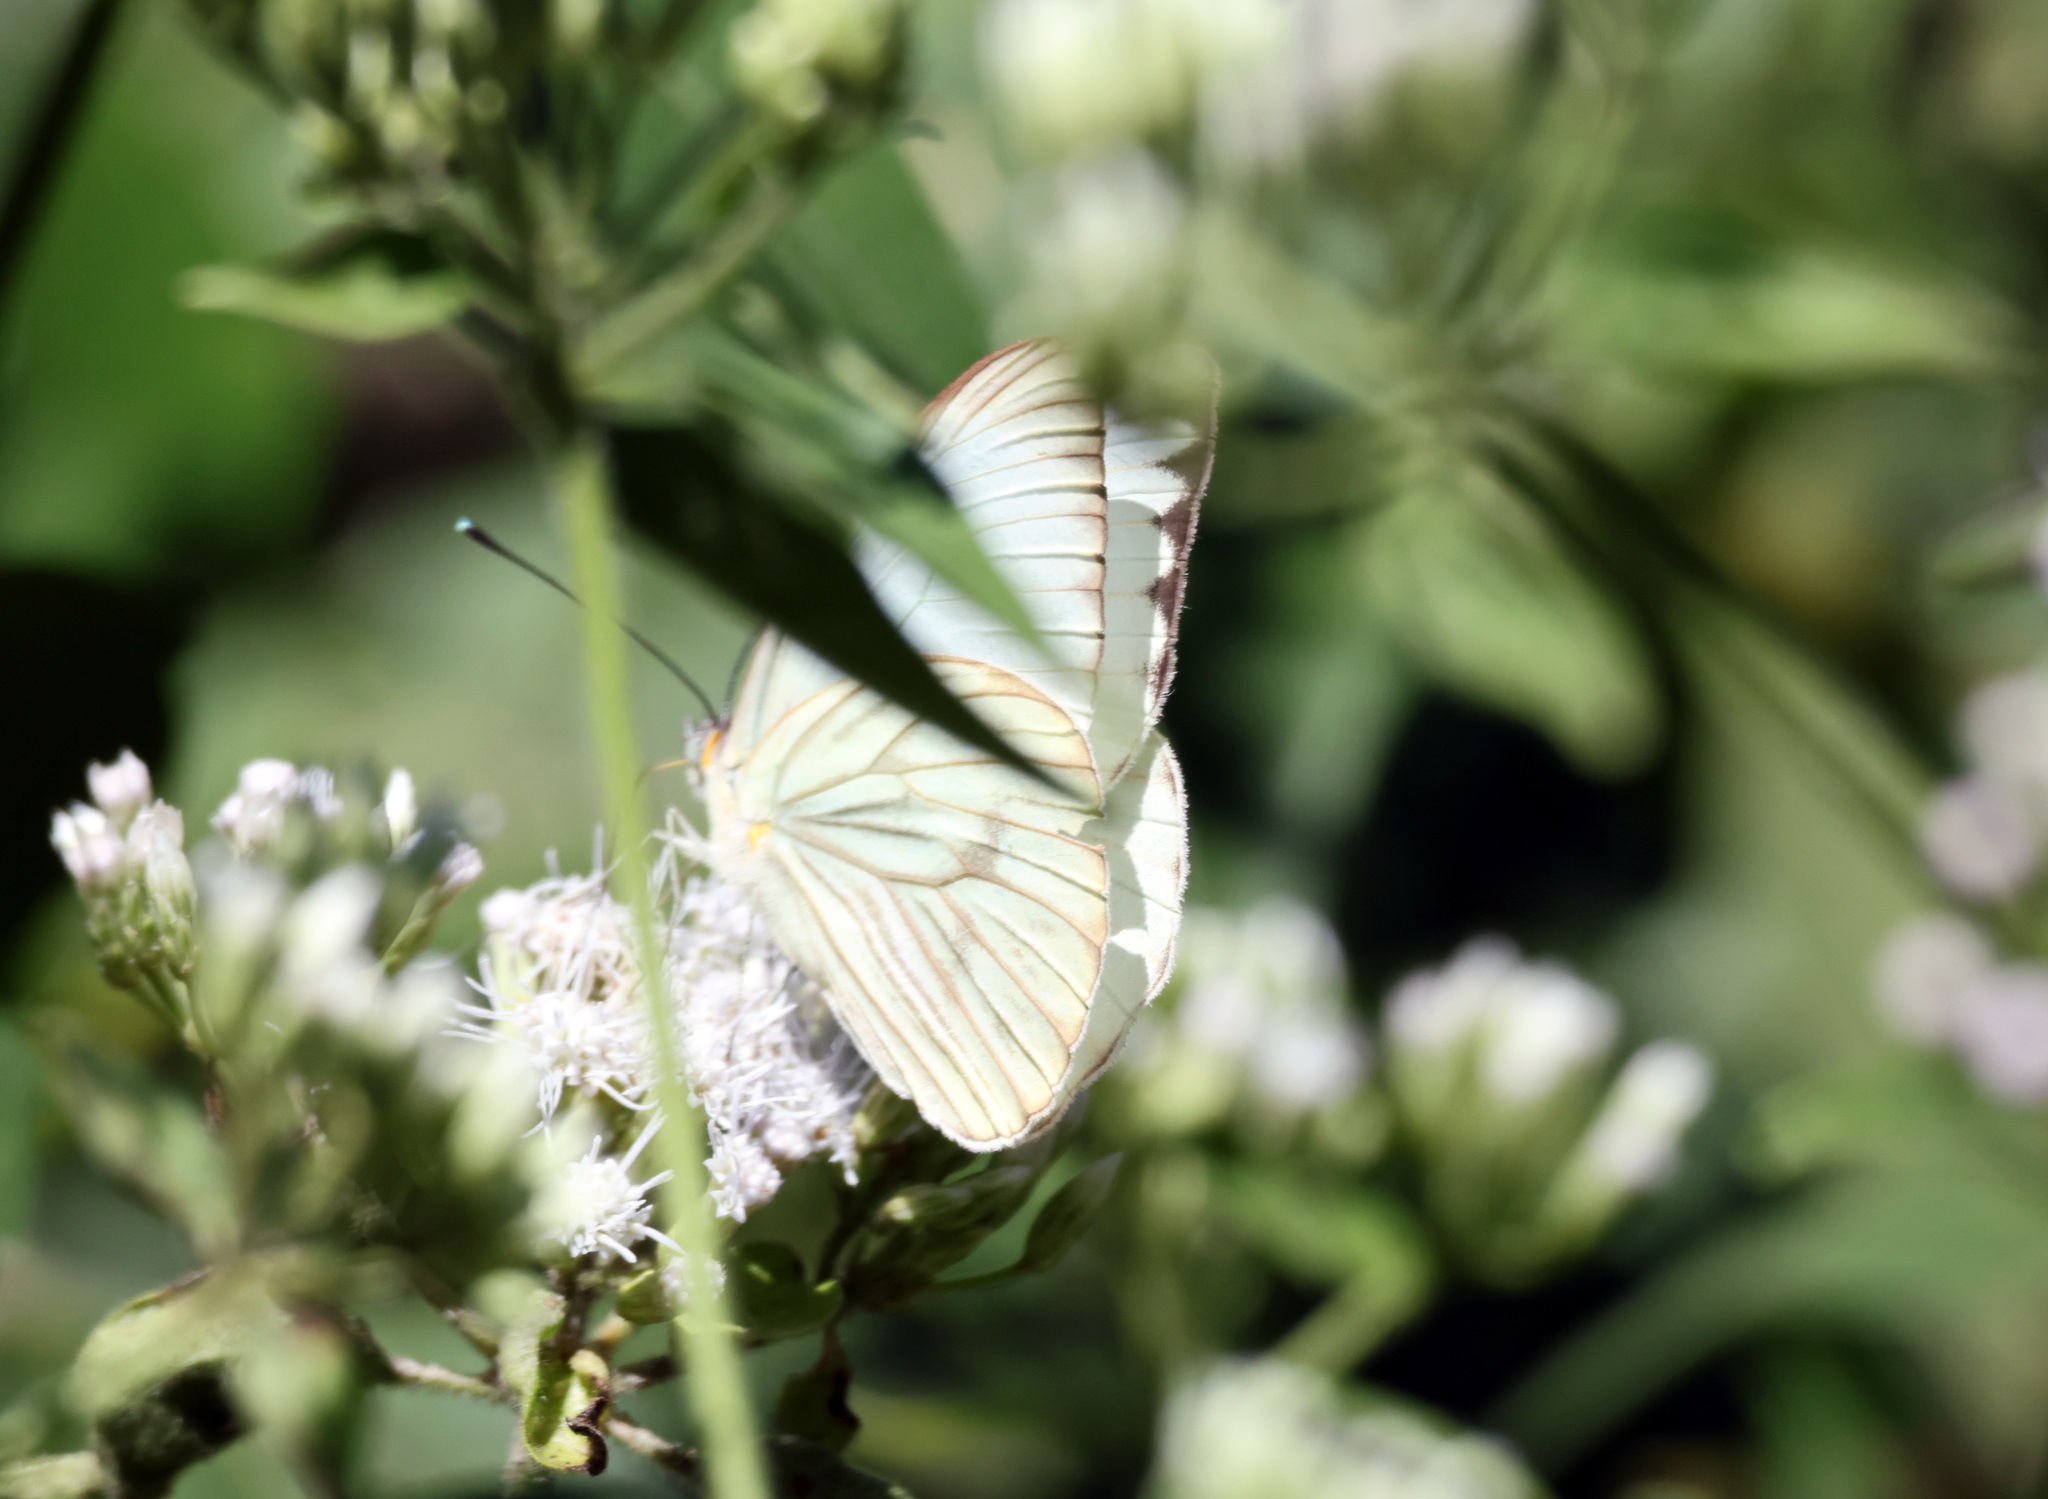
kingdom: Animalia
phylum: Arthropoda
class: Insecta
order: Lepidoptera
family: Pieridae
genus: Ascia
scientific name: Ascia monuste
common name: Great southern white
